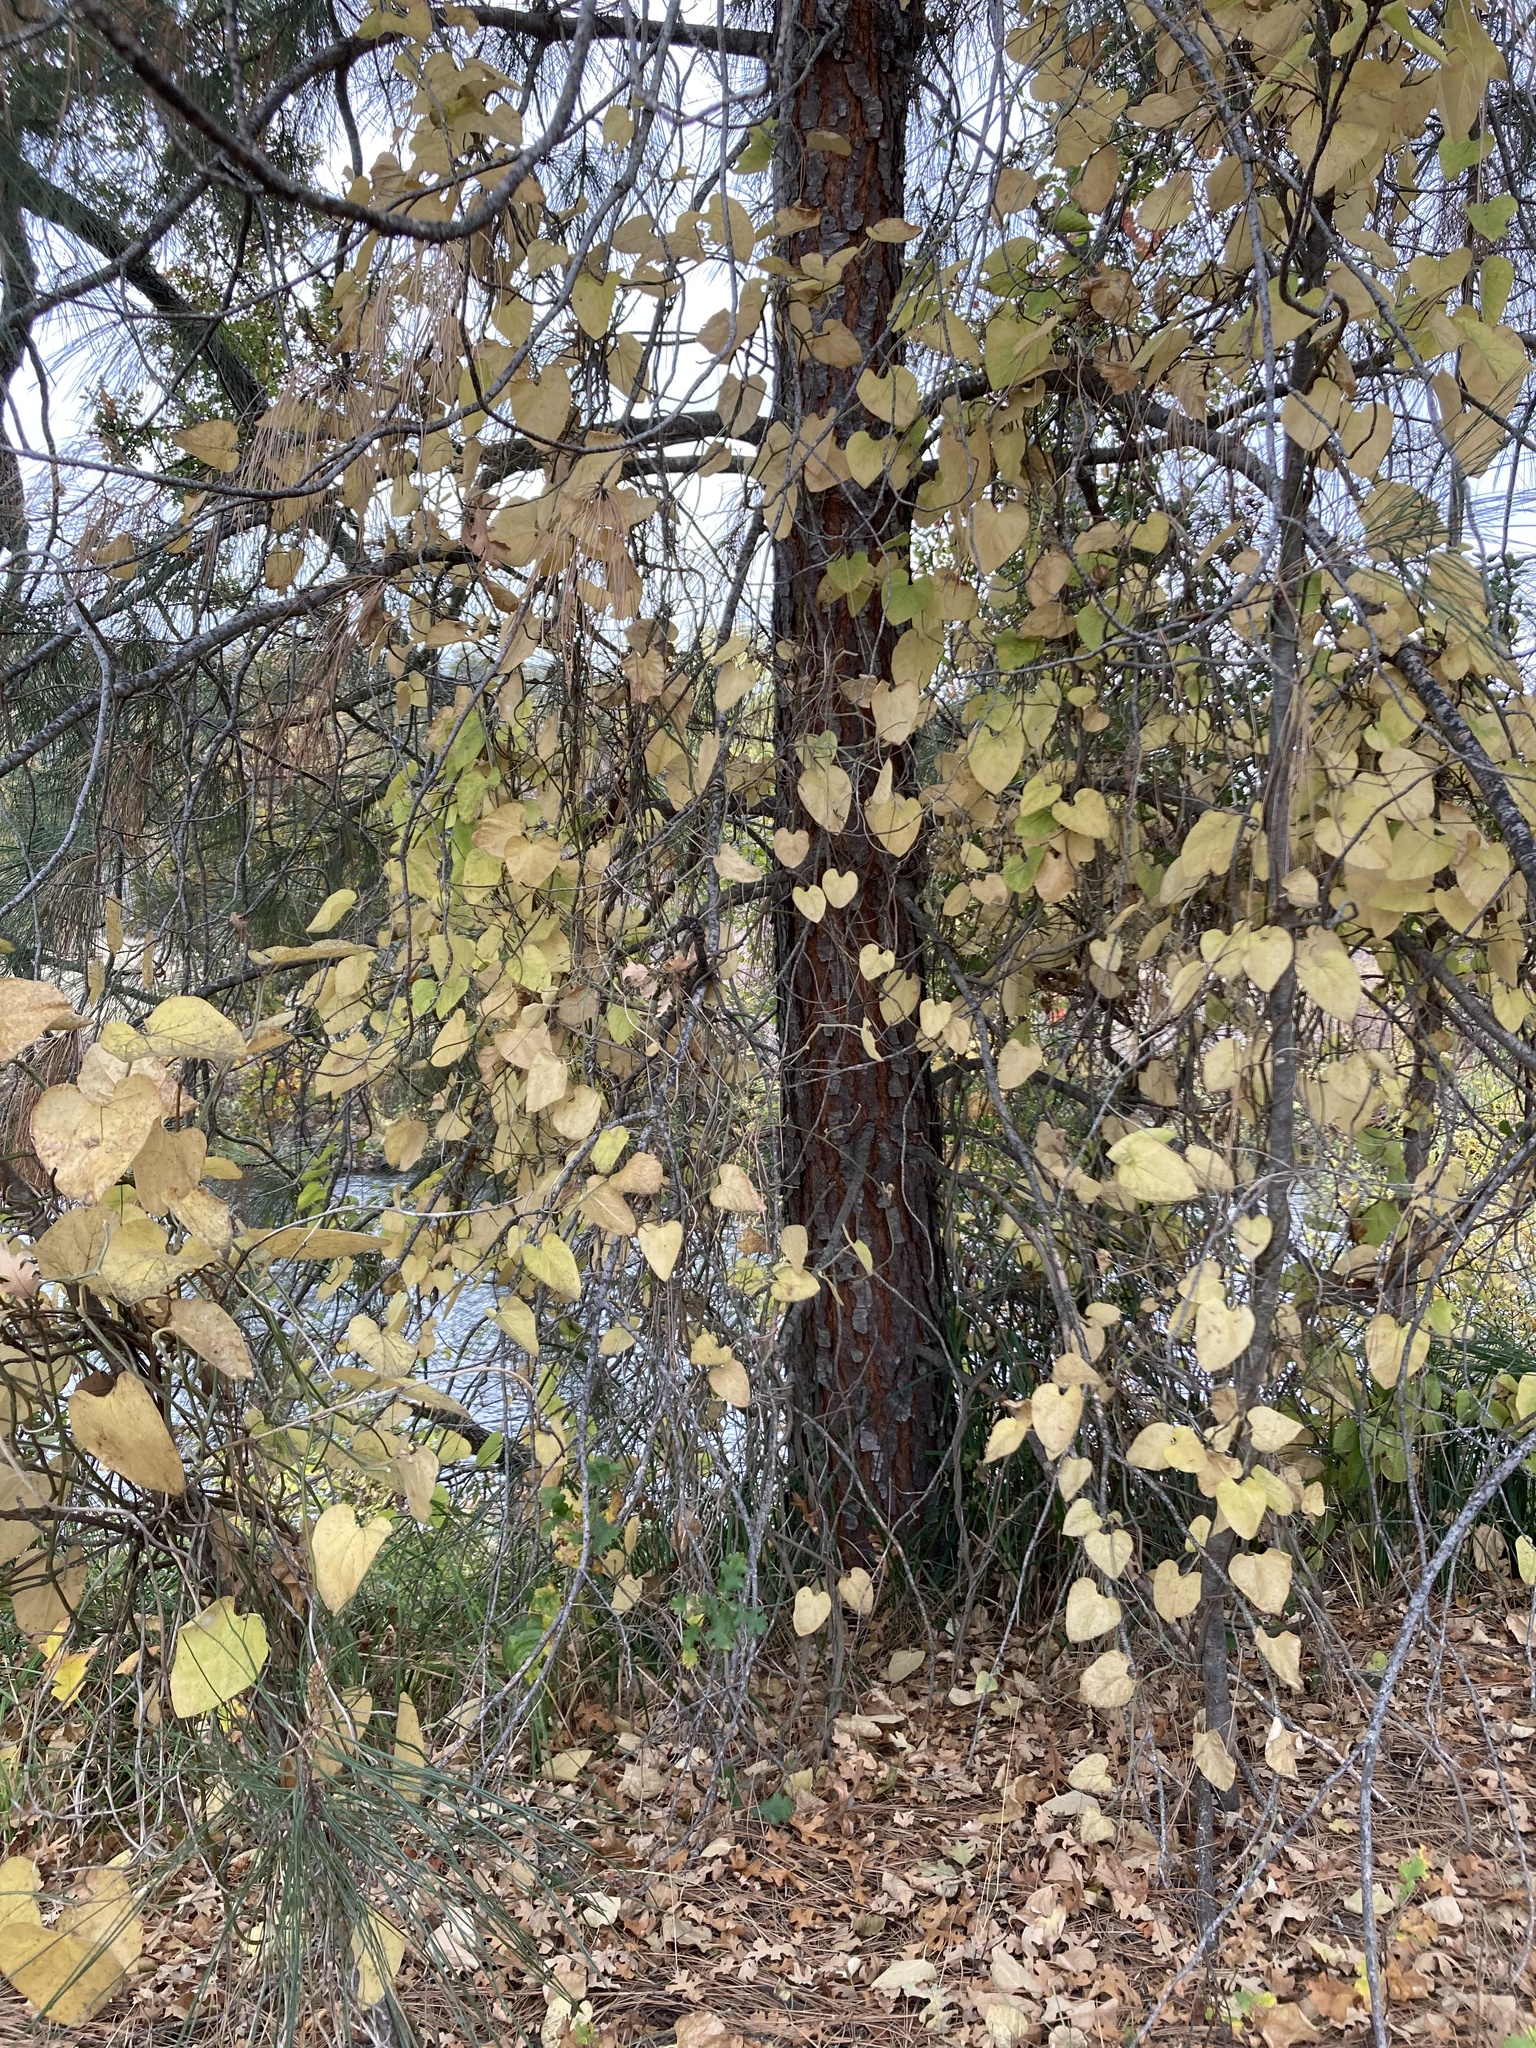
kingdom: Plantae
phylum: Tracheophyta
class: Magnoliopsida
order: Piperales
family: Aristolochiaceae
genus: Isotrema
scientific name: Isotrema californicum
